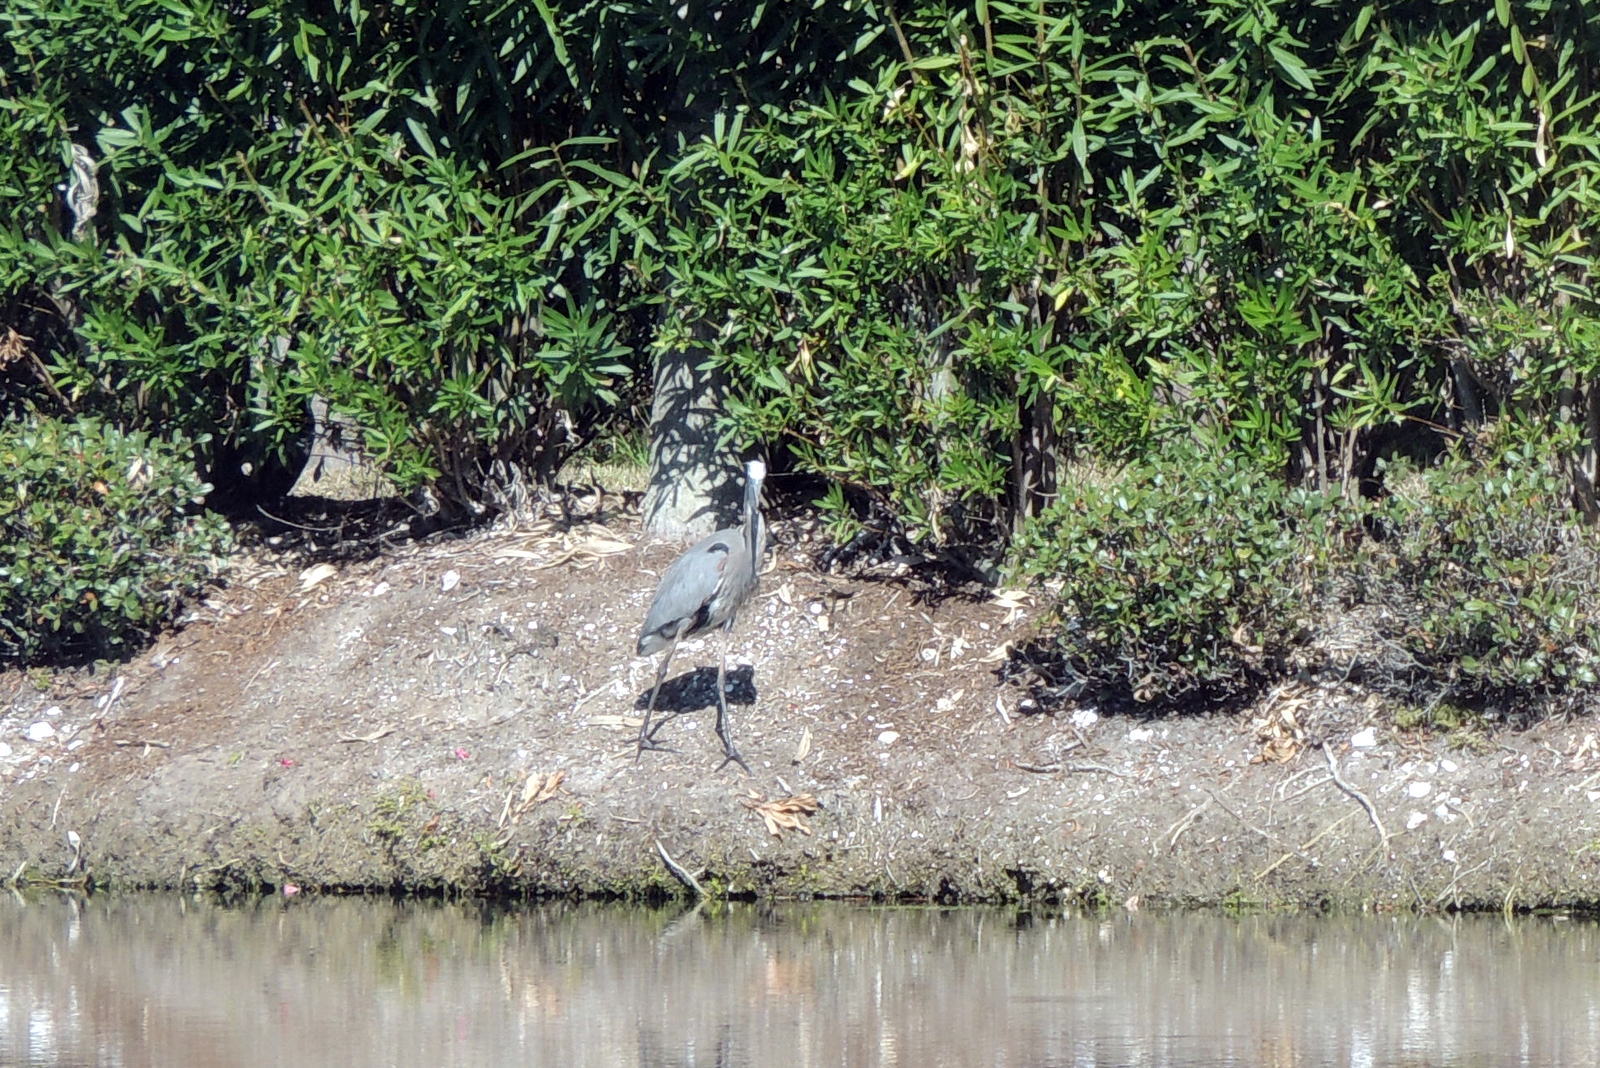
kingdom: Animalia
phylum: Chordata
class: Aves
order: Pelecaniformes
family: Ardeidae
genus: Ardea
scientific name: Ardea herodias
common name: Great blue heron
